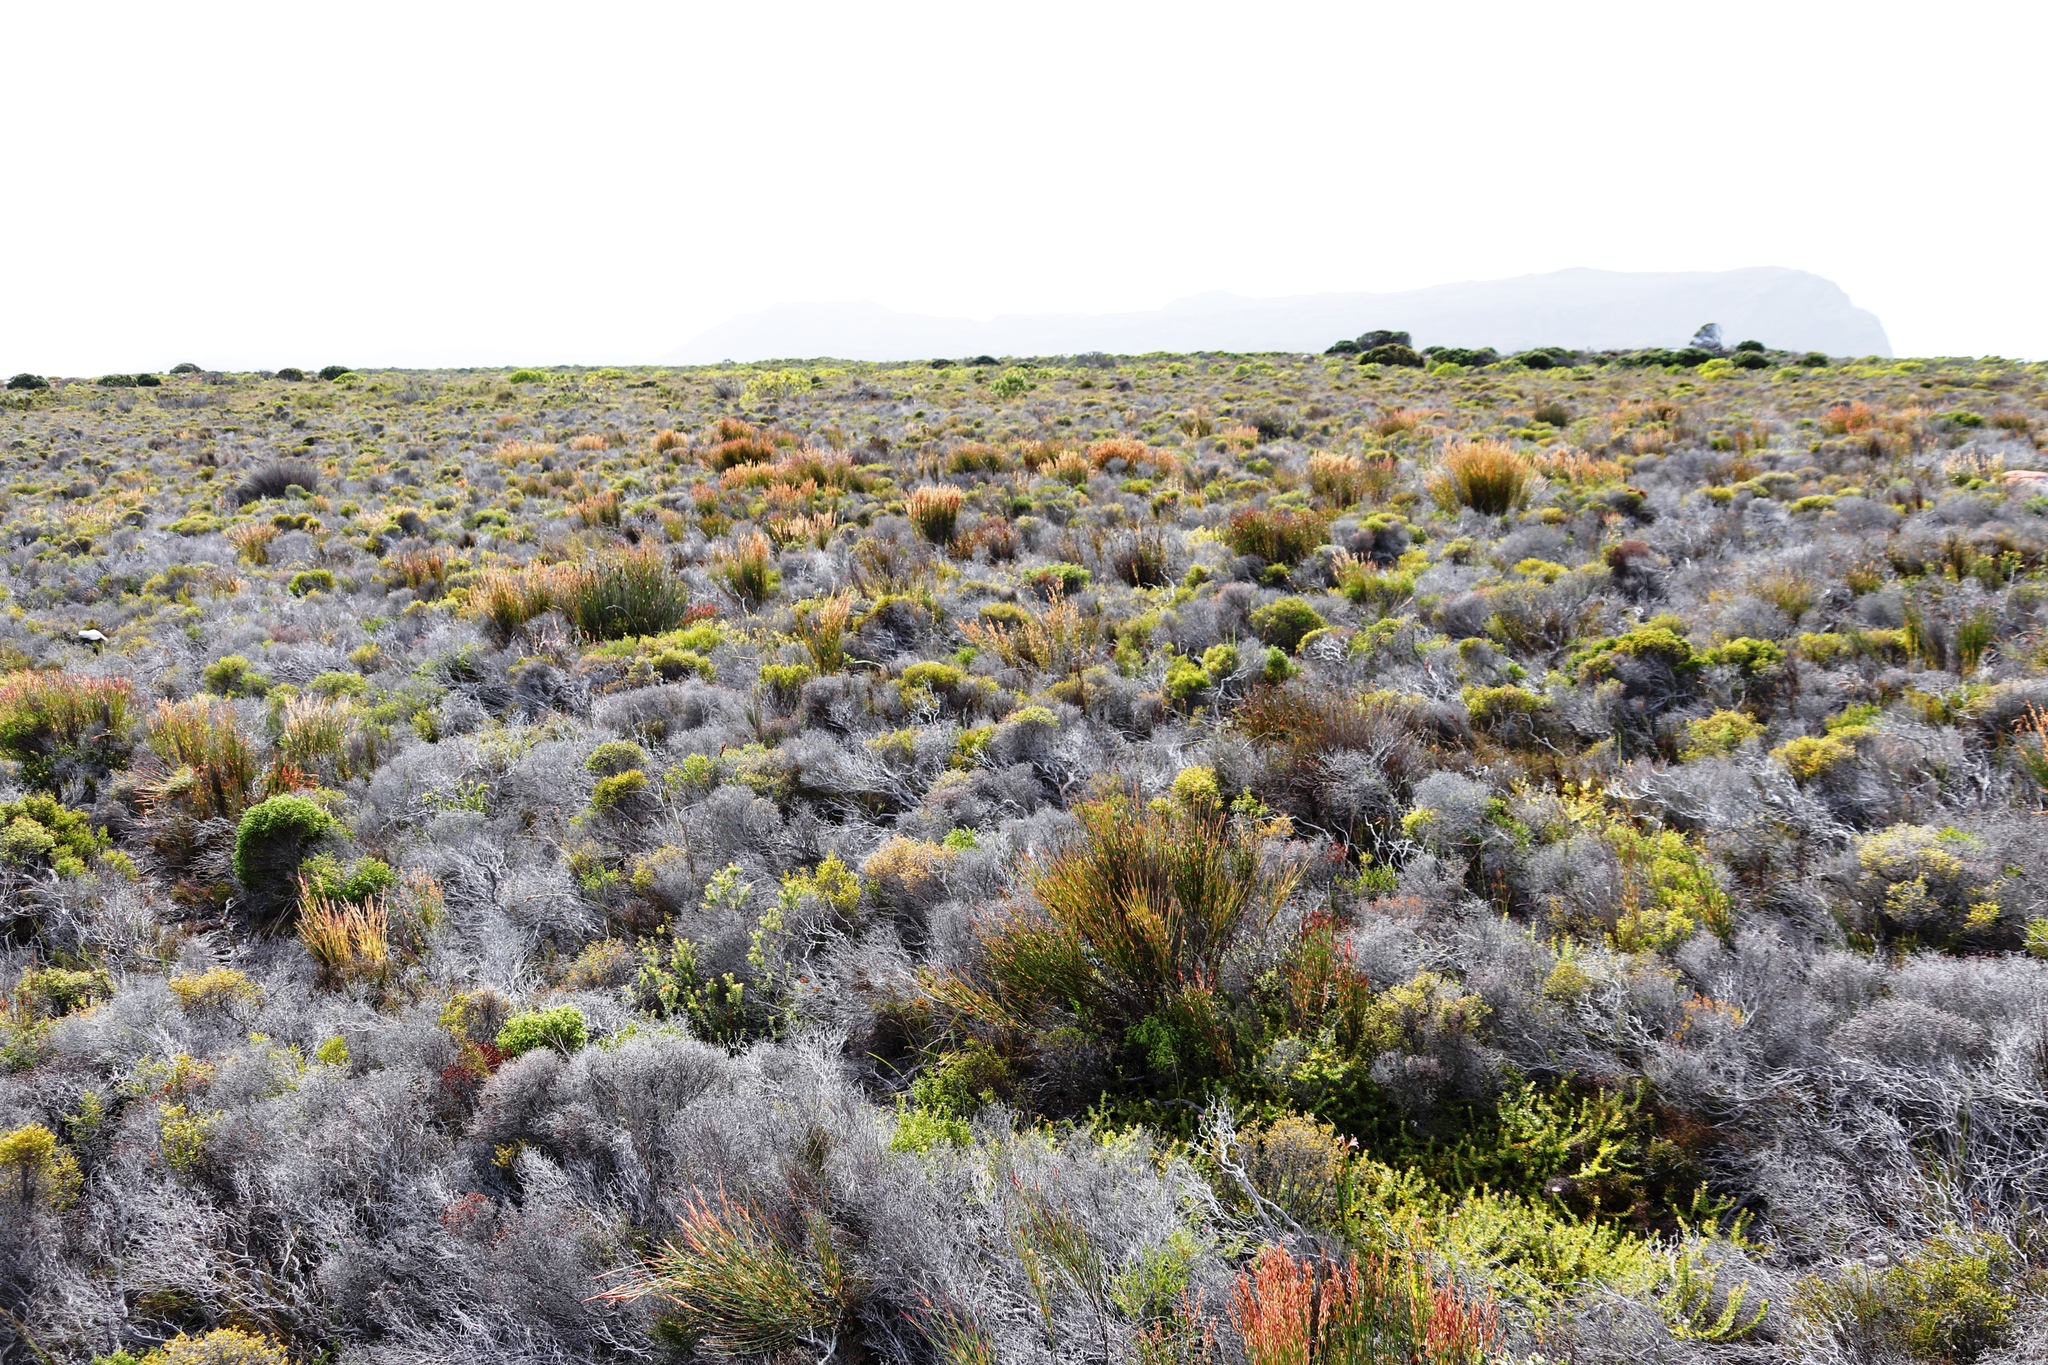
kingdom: Plantae
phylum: Tracheophyta
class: Liliopsida
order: Poales
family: Restionaceae
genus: Elegia
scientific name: Elegia stipularis
